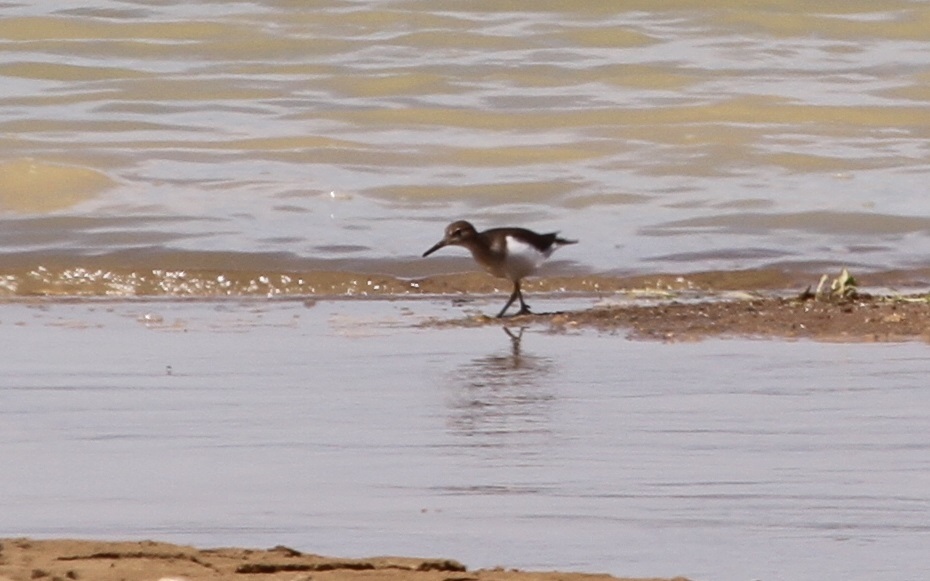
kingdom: Animalia
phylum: Chordata
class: Aves
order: Charadriiformes
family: Scolopacidae
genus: Actitis
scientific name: Actitis hypoleucos
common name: Common sandpiper
